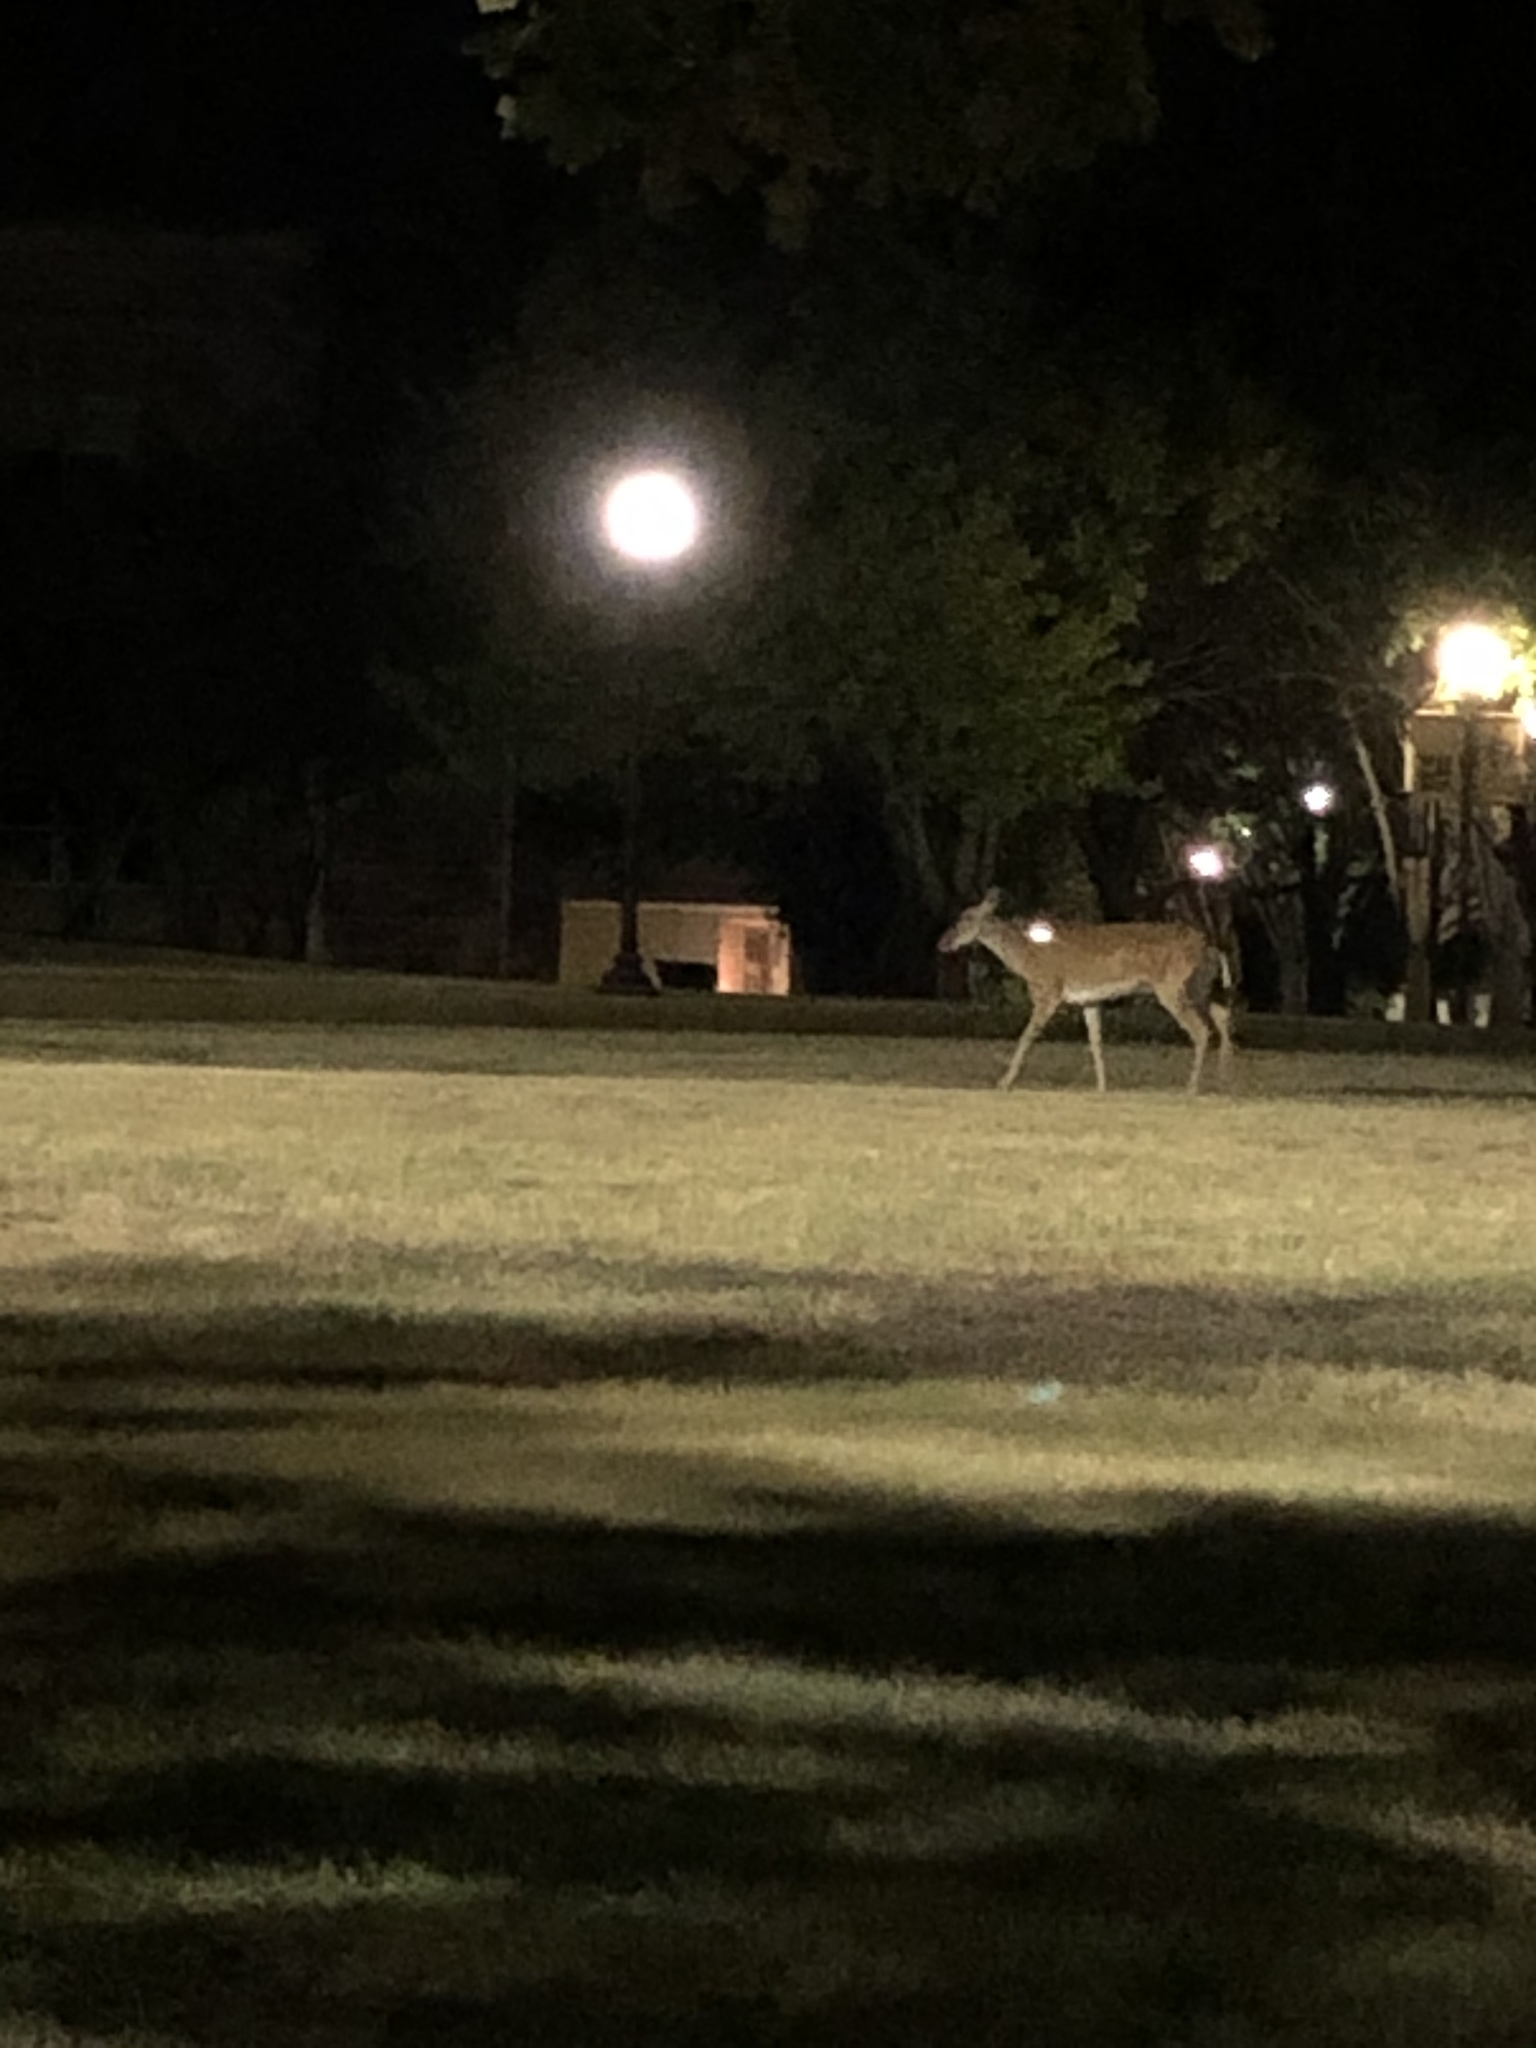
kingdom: Animalia
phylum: Chordata
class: Mammalia
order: Artiodactyla
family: Cervidae
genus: Odocoileus
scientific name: Odocoileus virginianus
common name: White-tailed deer
